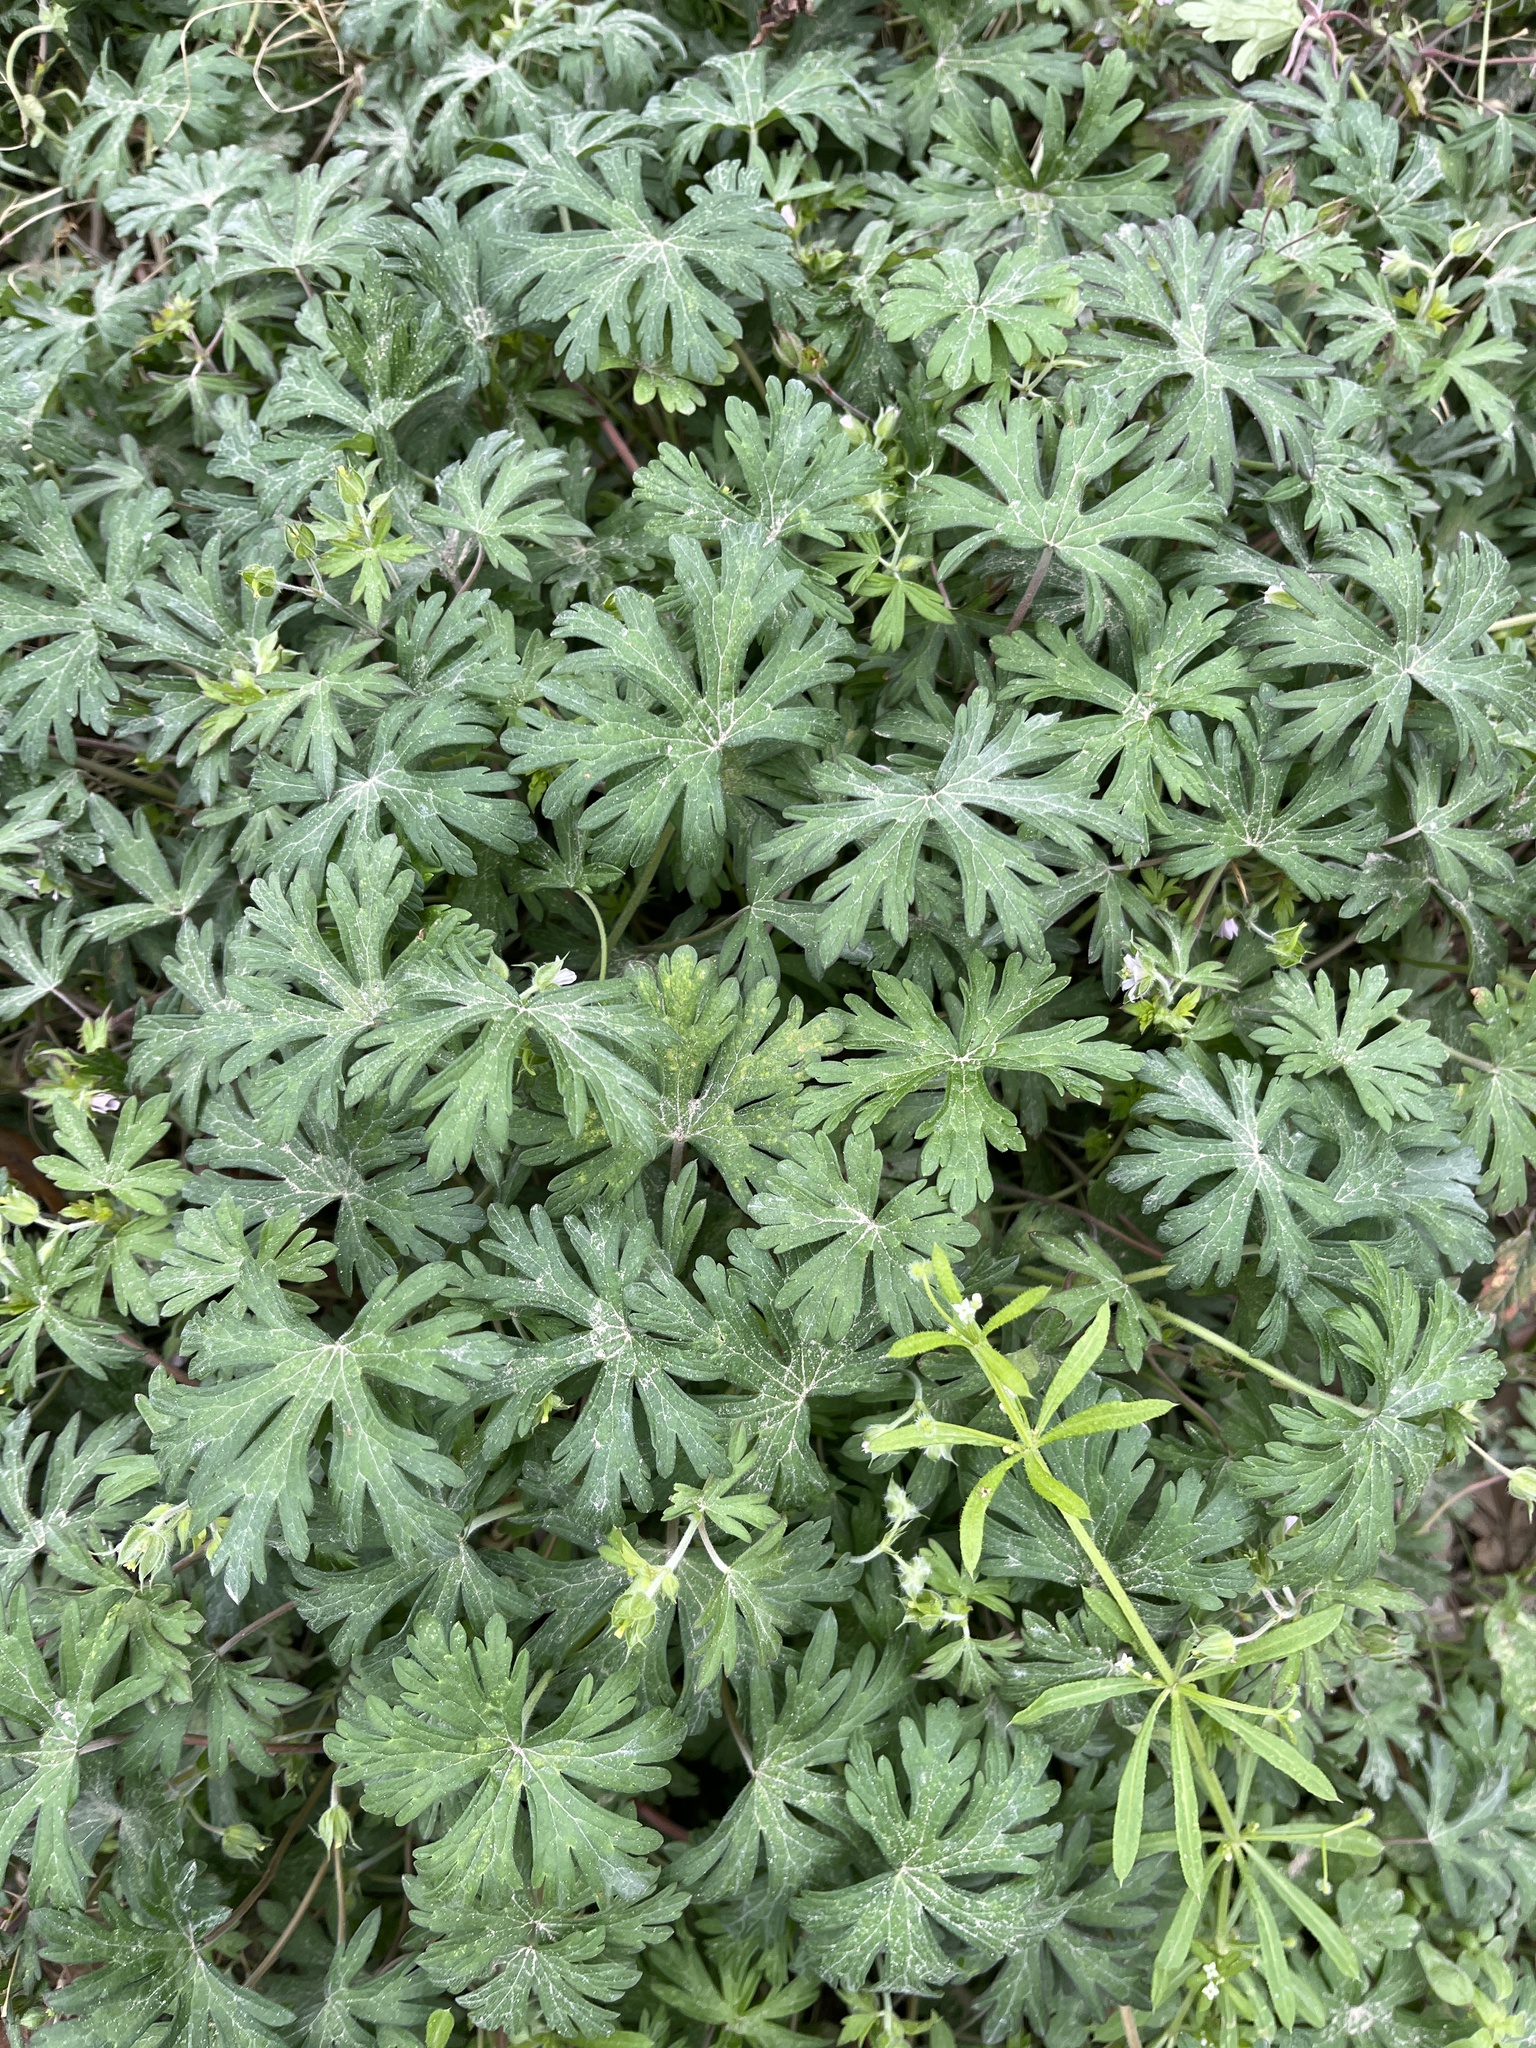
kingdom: Plantae
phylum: Tracheophyta
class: Magnoliopsida
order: Geraniales
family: Geraniaceae
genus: Geranium
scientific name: Geranium carolinianum
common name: Carolina crane's-bill
